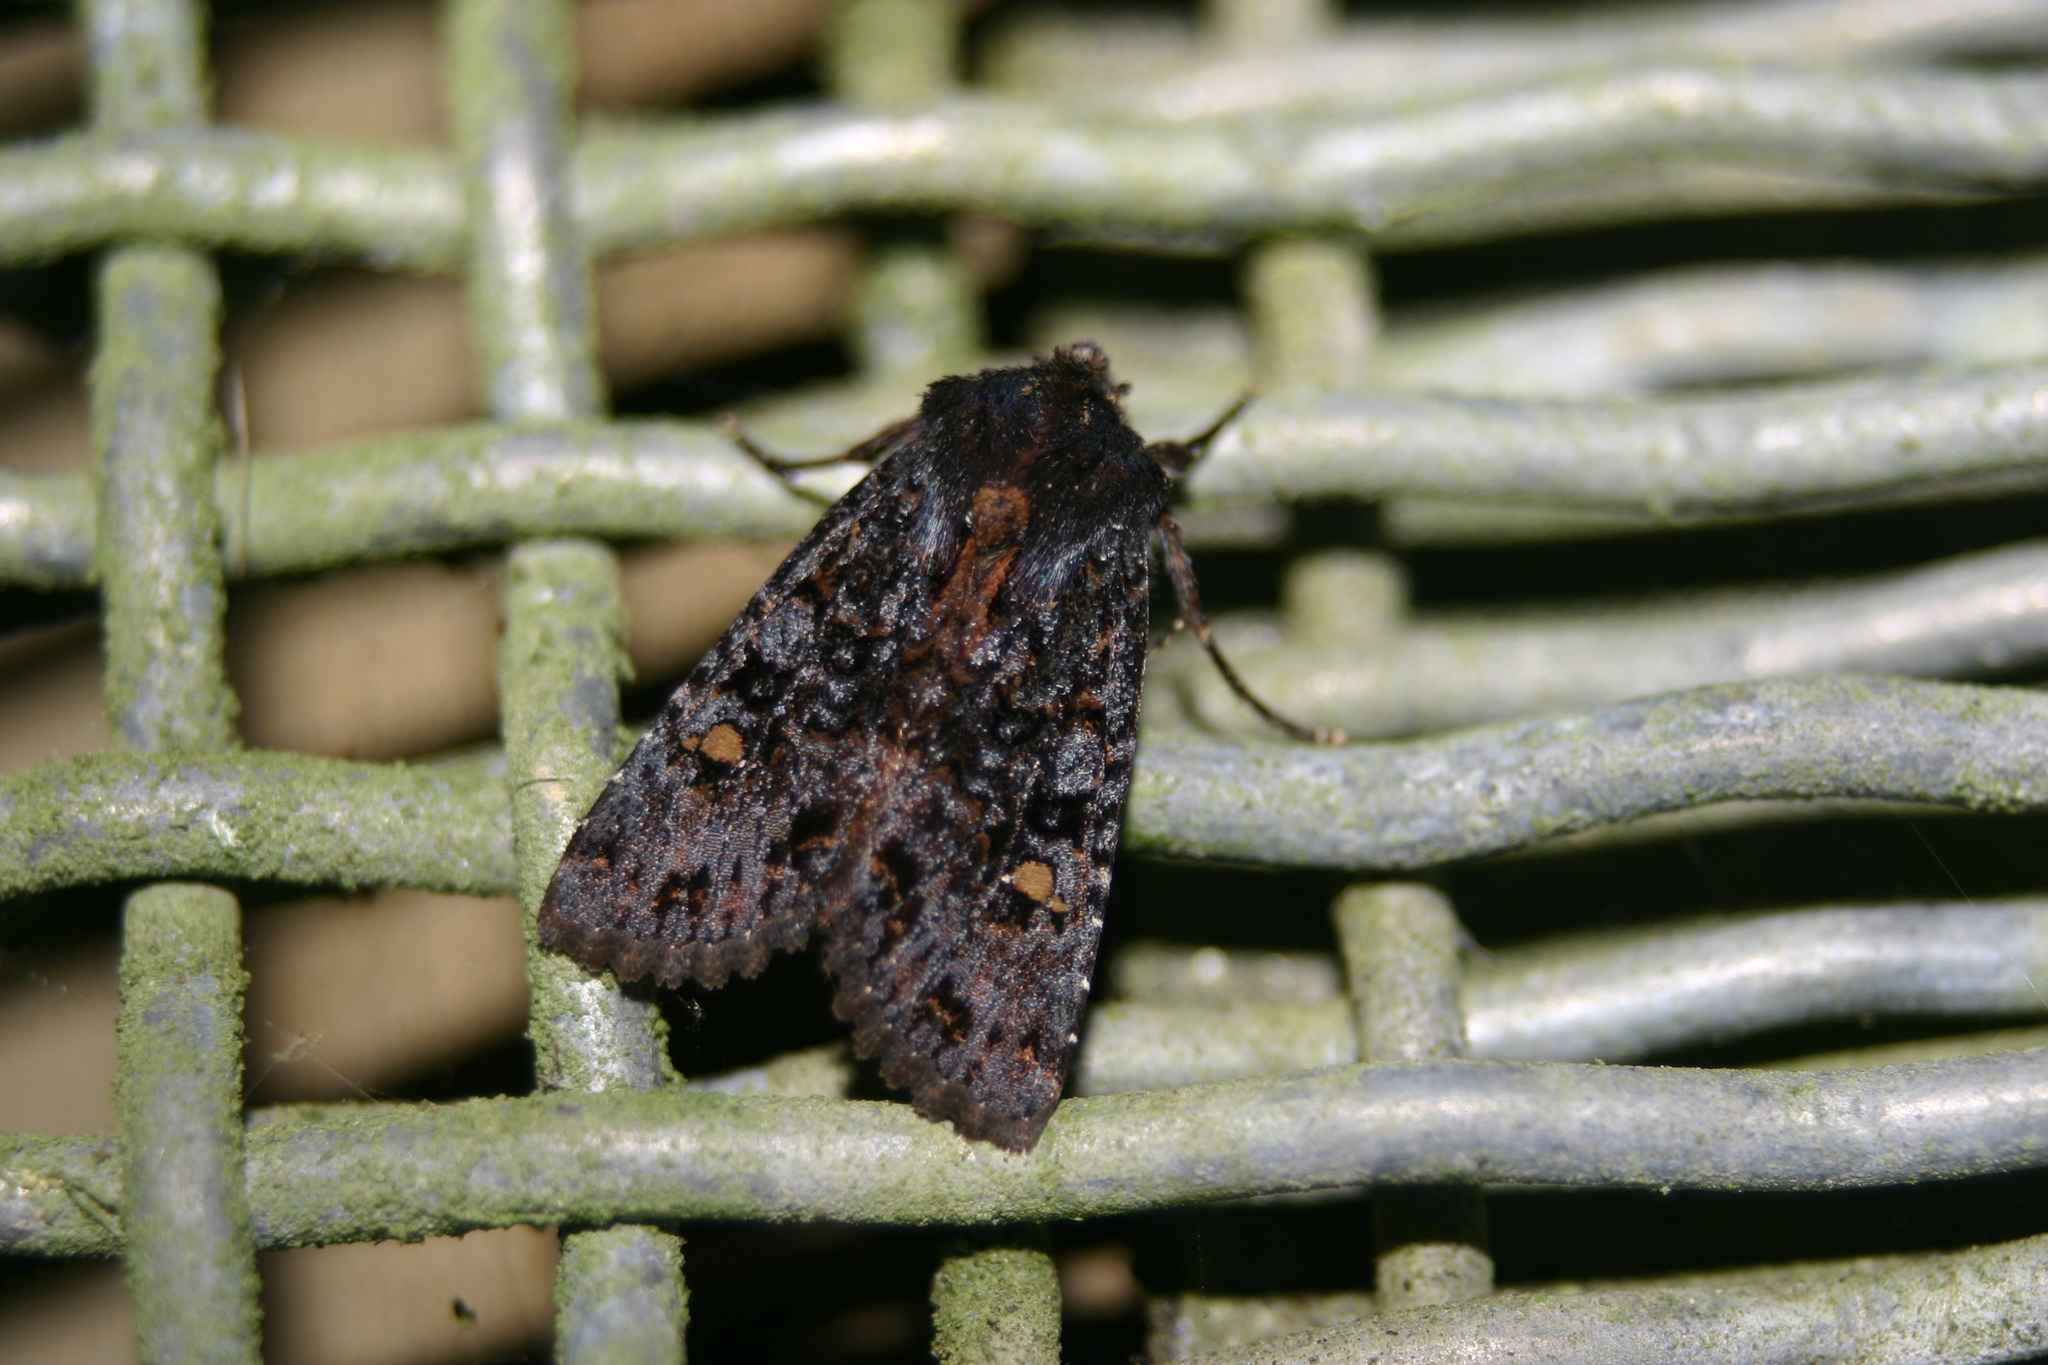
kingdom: Animalia
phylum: Arthropoda
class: Insecta
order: Lepidoptera
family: Noctuidae
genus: Meterana
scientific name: Meterana vitiosa
